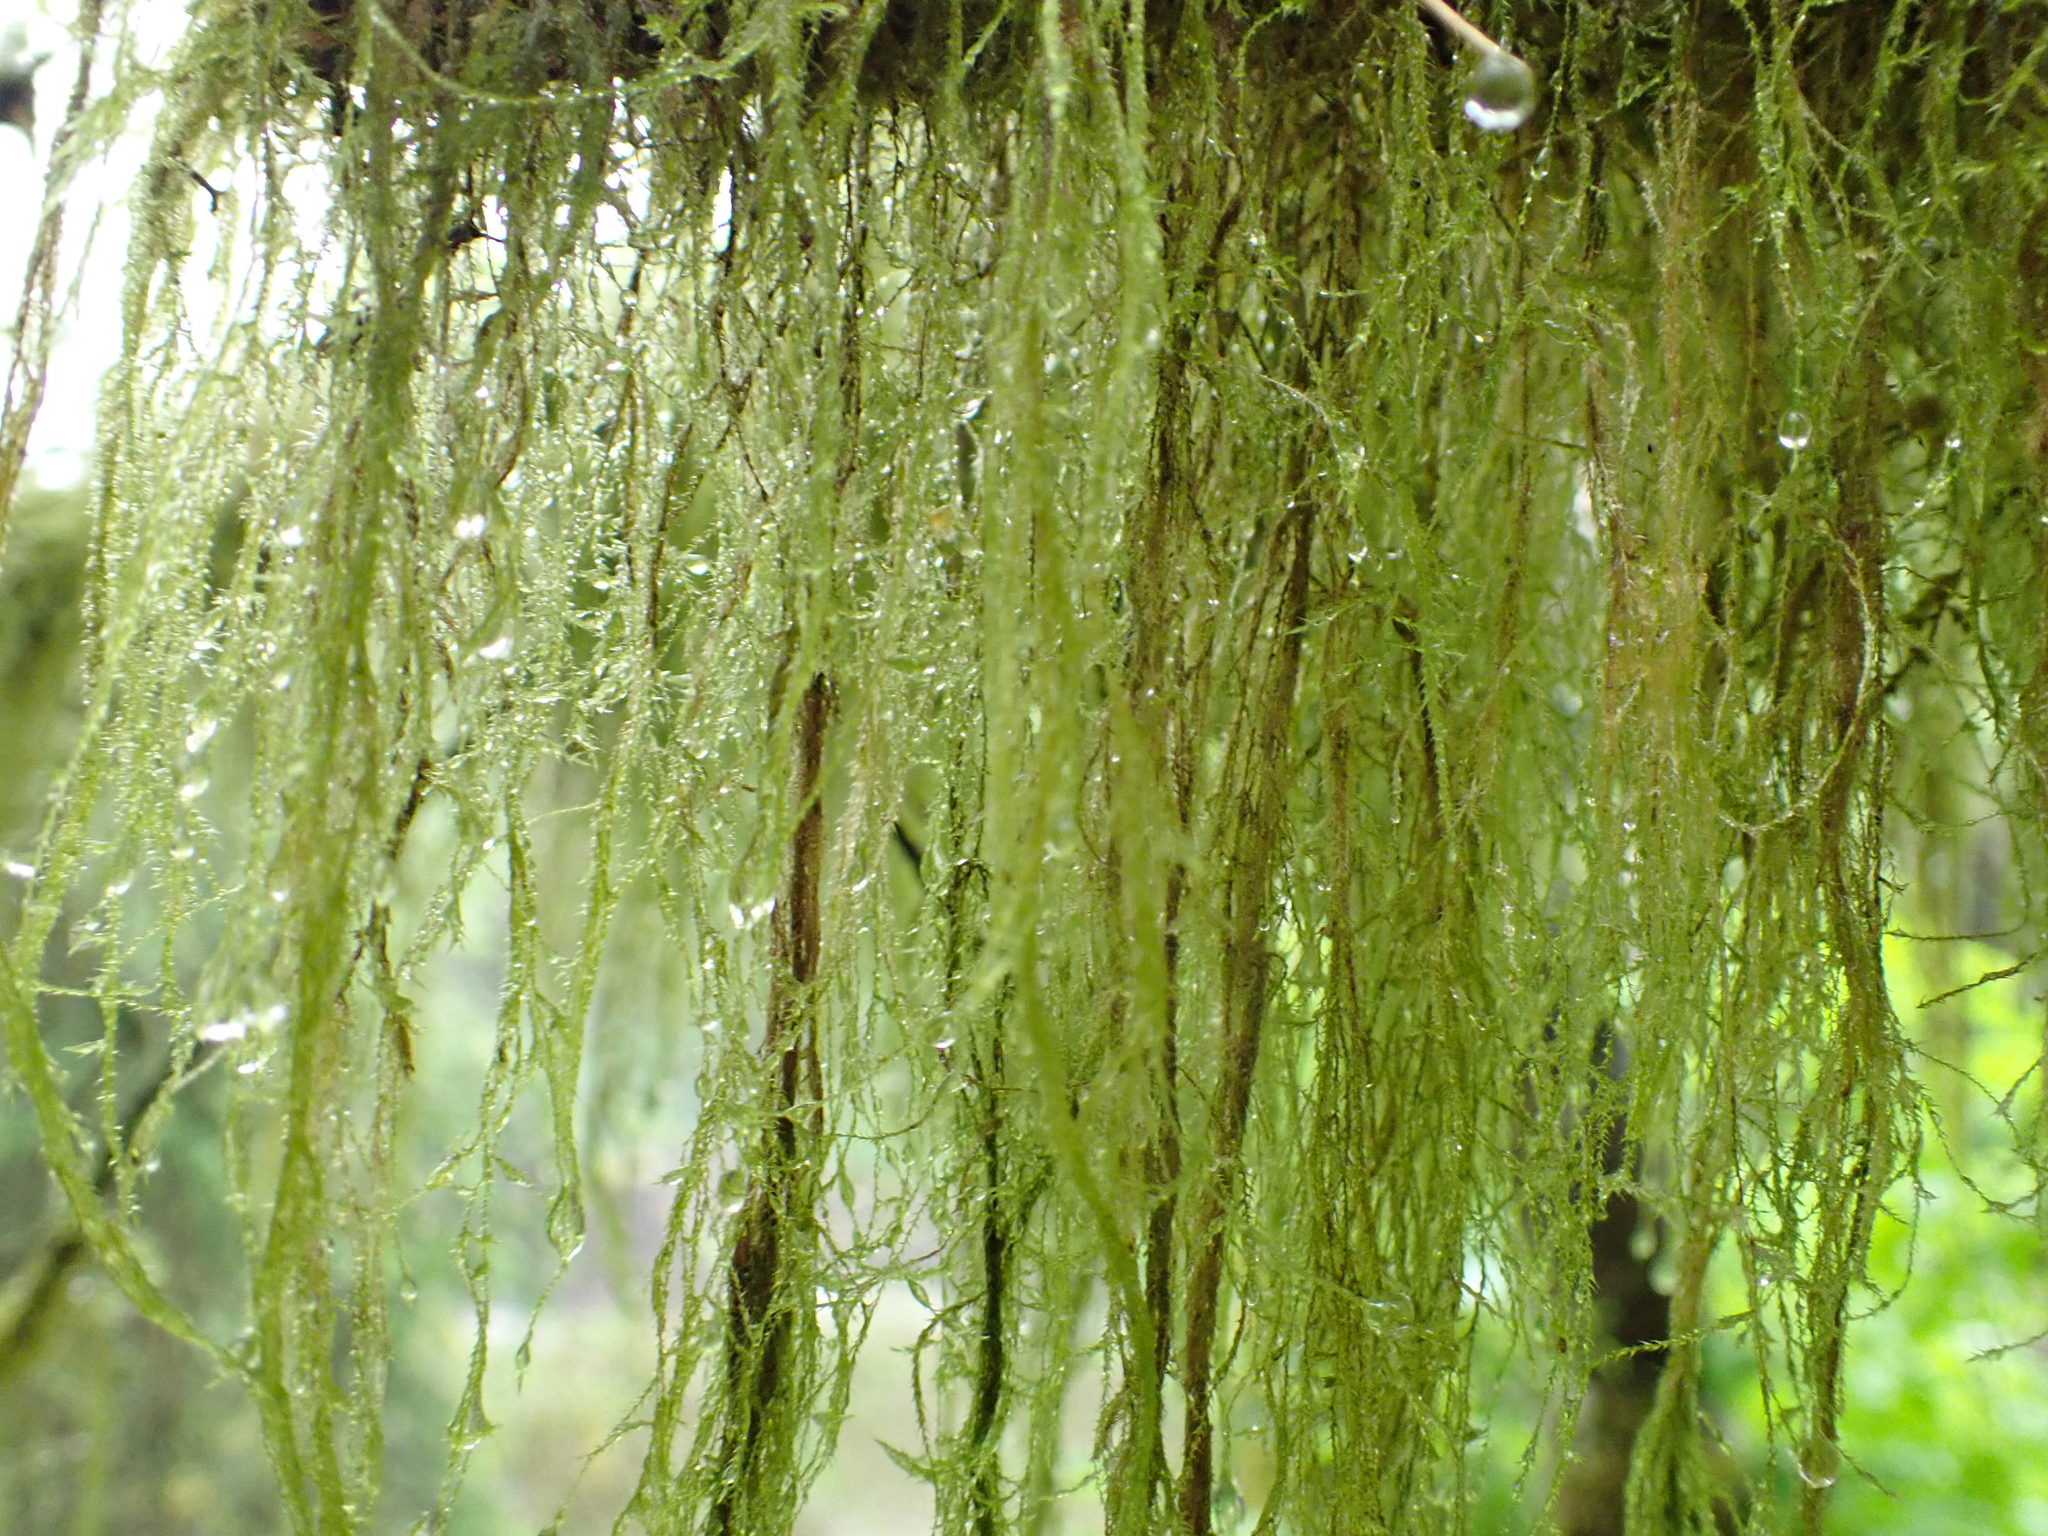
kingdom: Plantae
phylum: Bryophyta
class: Bryopsida
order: Hypnales
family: Lembophyllaceae
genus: Pseudisothecium
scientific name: Pseudisothecium stoloniferum
